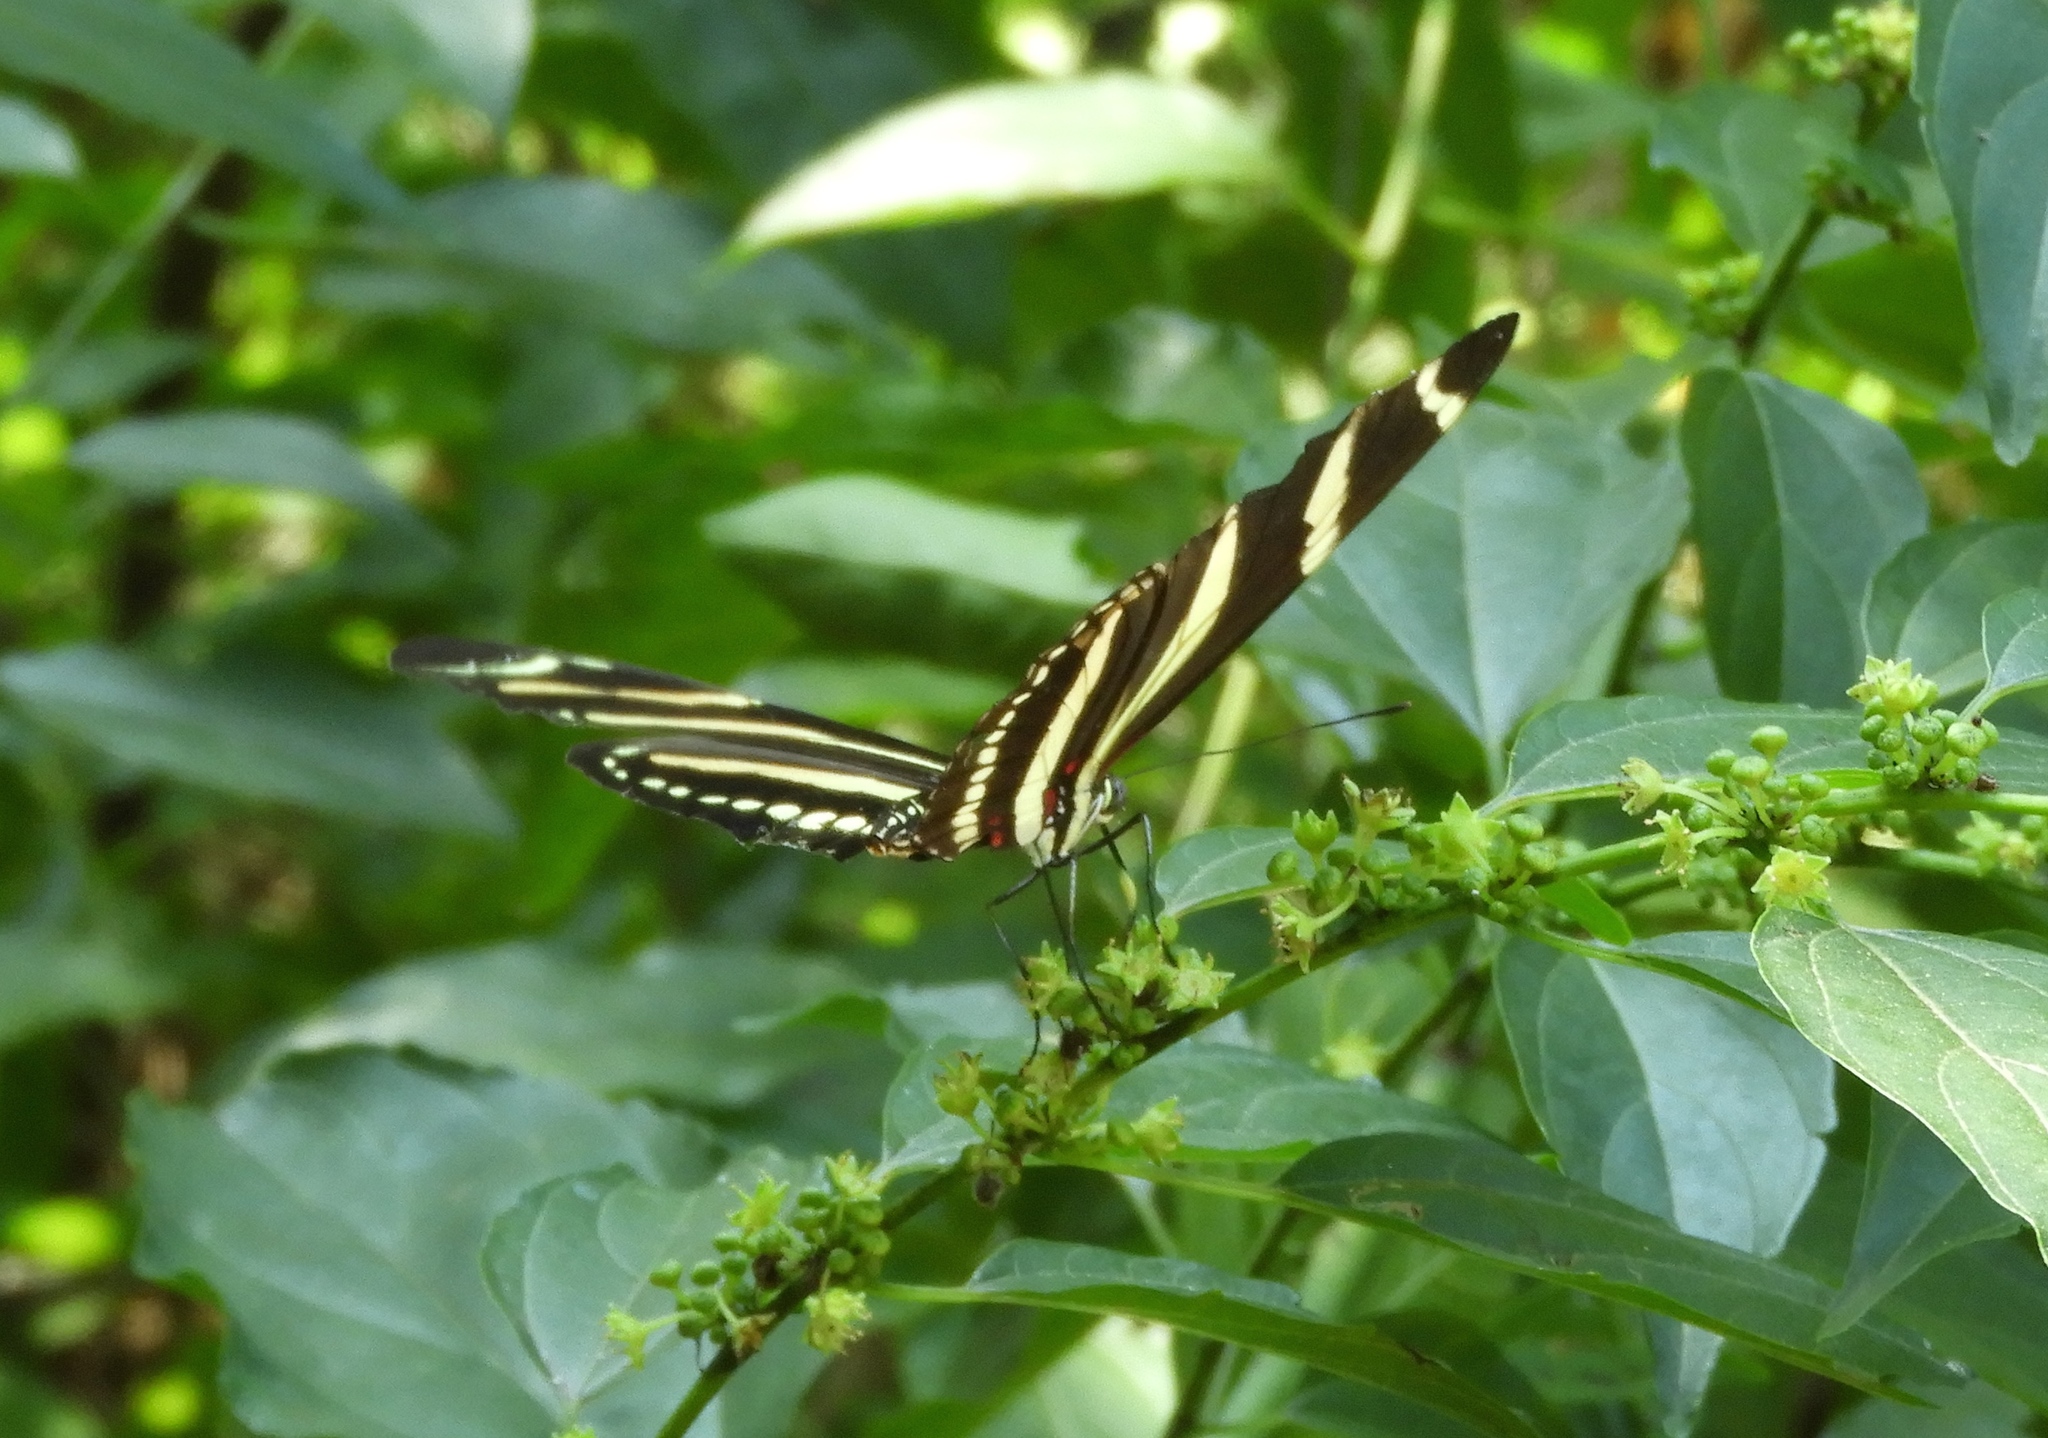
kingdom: Animalia
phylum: Arthropoda
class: Insecta
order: Lepidoptera
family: Nymphalidae
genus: Heliconius
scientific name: Heliconius charithonia
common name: Zebra long wing
